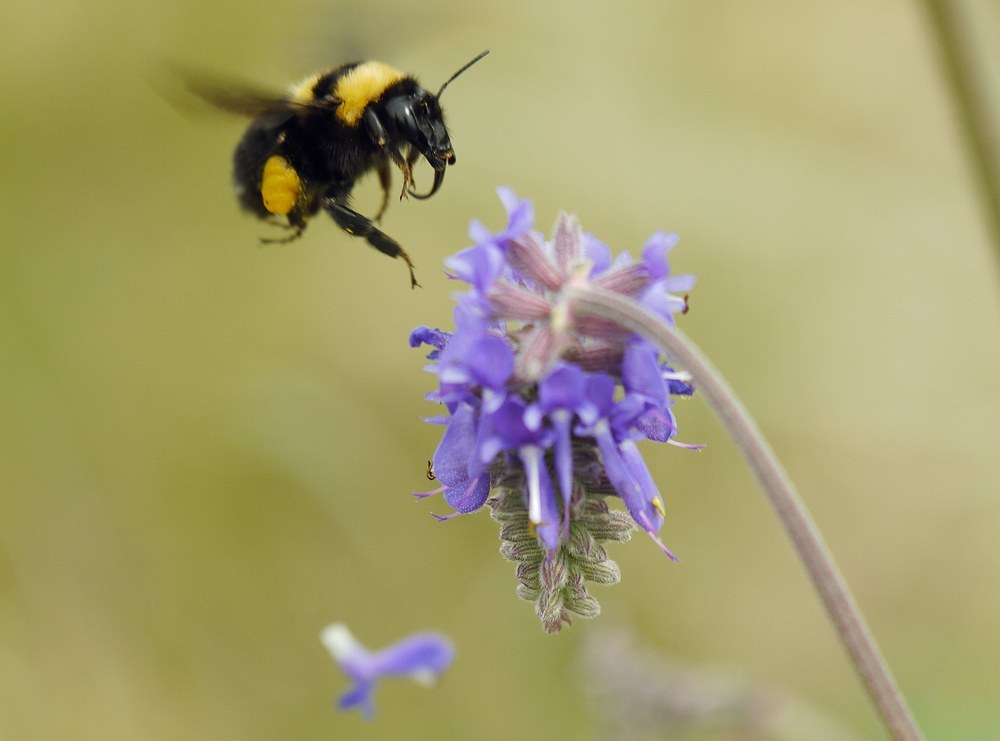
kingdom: Animalia
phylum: Arthropoda
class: Insecta
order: Hymenoptera
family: Apidae
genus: Bombus
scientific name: Bombus argillaceus
